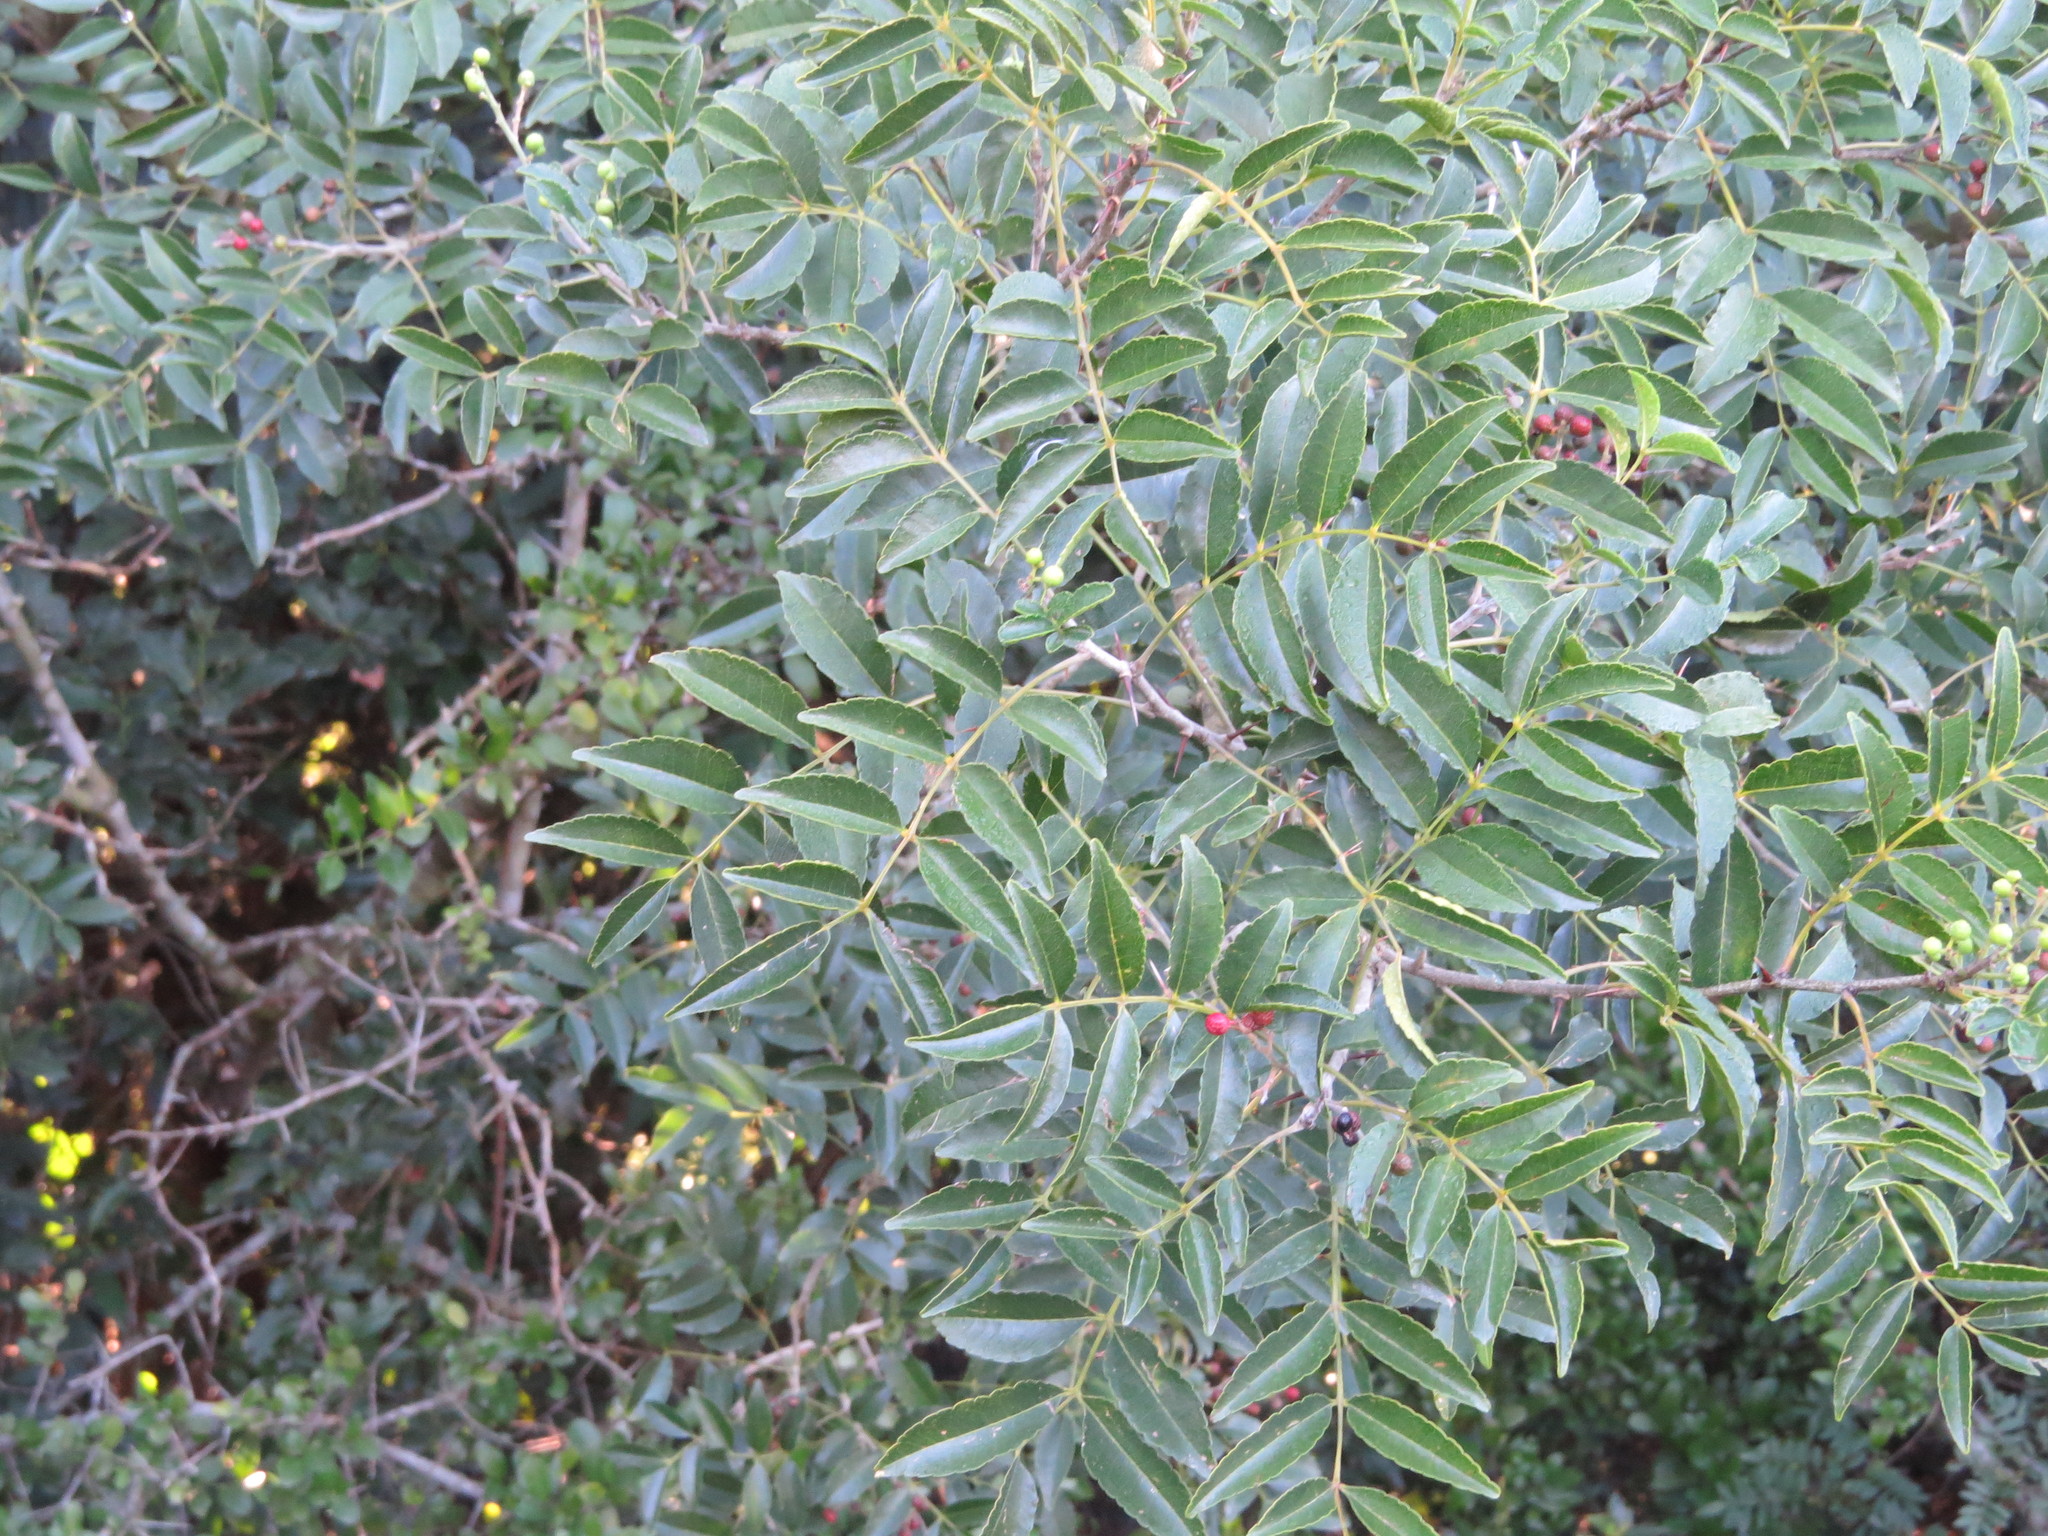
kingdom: Plantae
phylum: Tracheophyta
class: Magnoliopsida
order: Sapindales
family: Rutaceae
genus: Zanthoxylum
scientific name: Zanthoxylum rhoifolium
